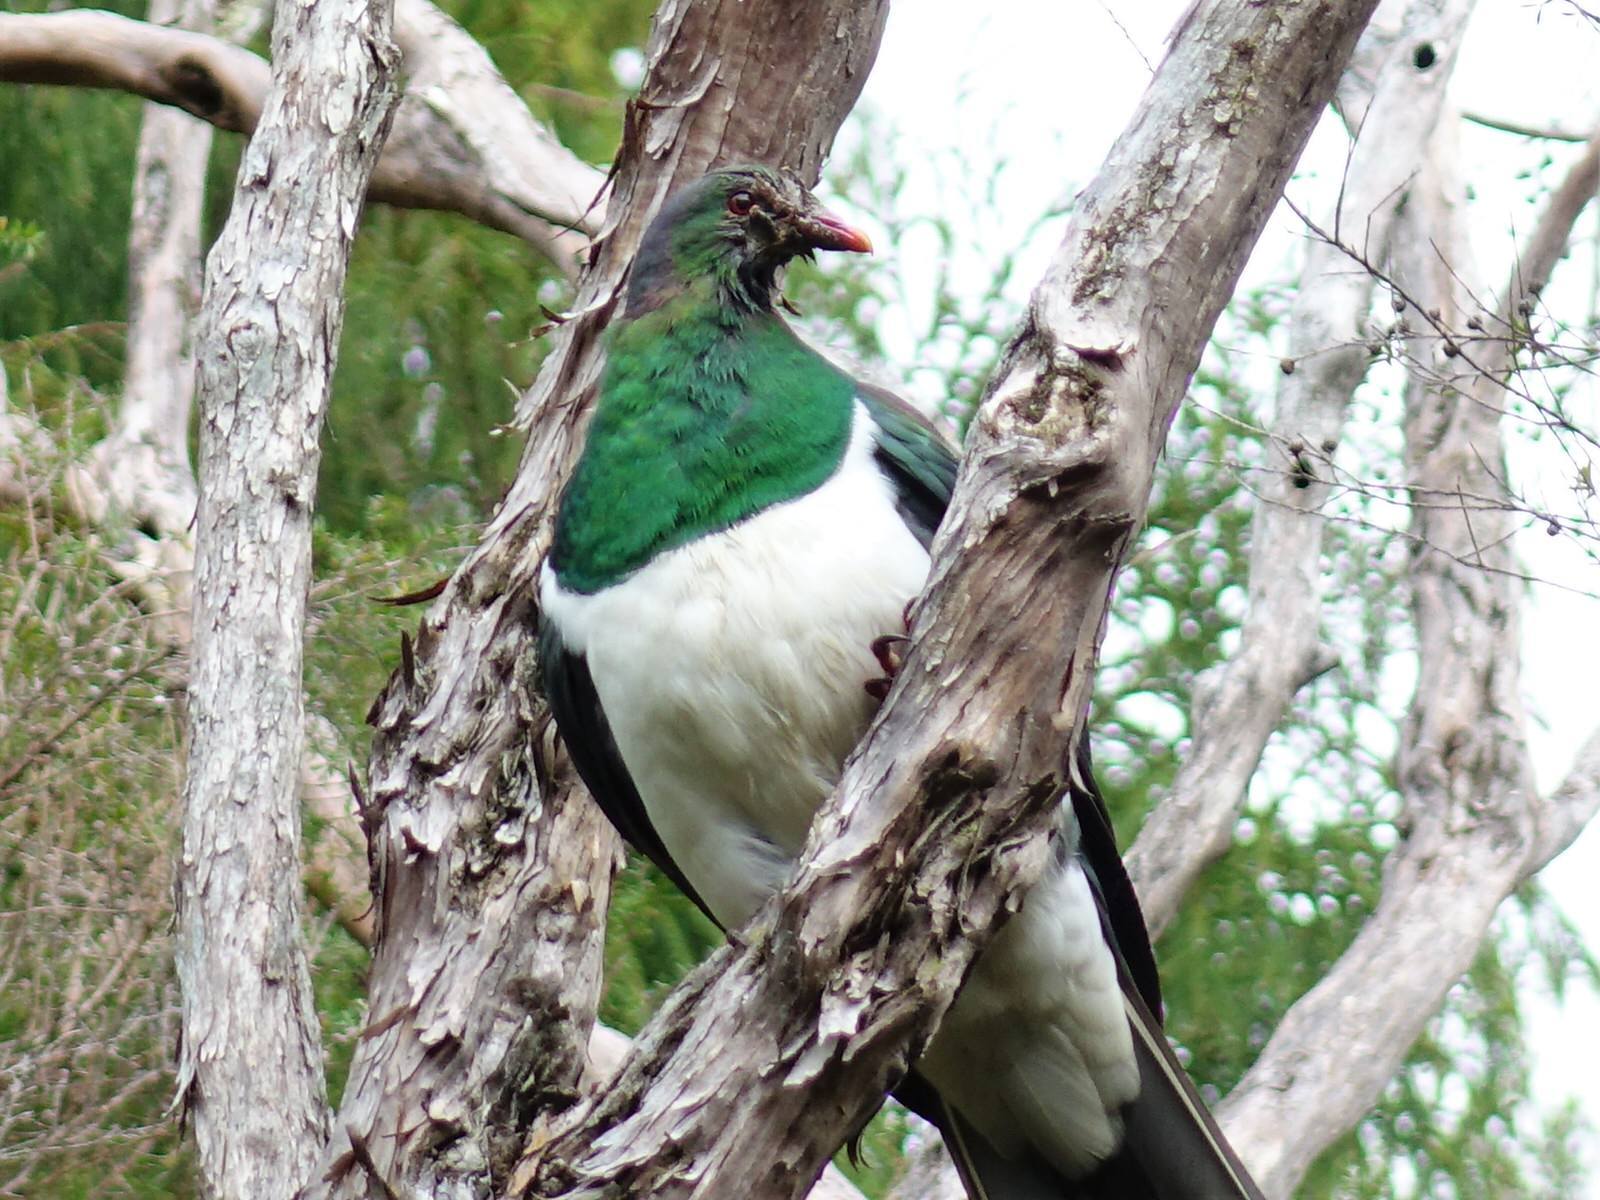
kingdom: Animalia
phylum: Chordata
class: Aves
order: Columbiformes
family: Columbidae
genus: Hemiphaga
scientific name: Hemiphaga novaeseelandiae
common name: New zealand pigeon
